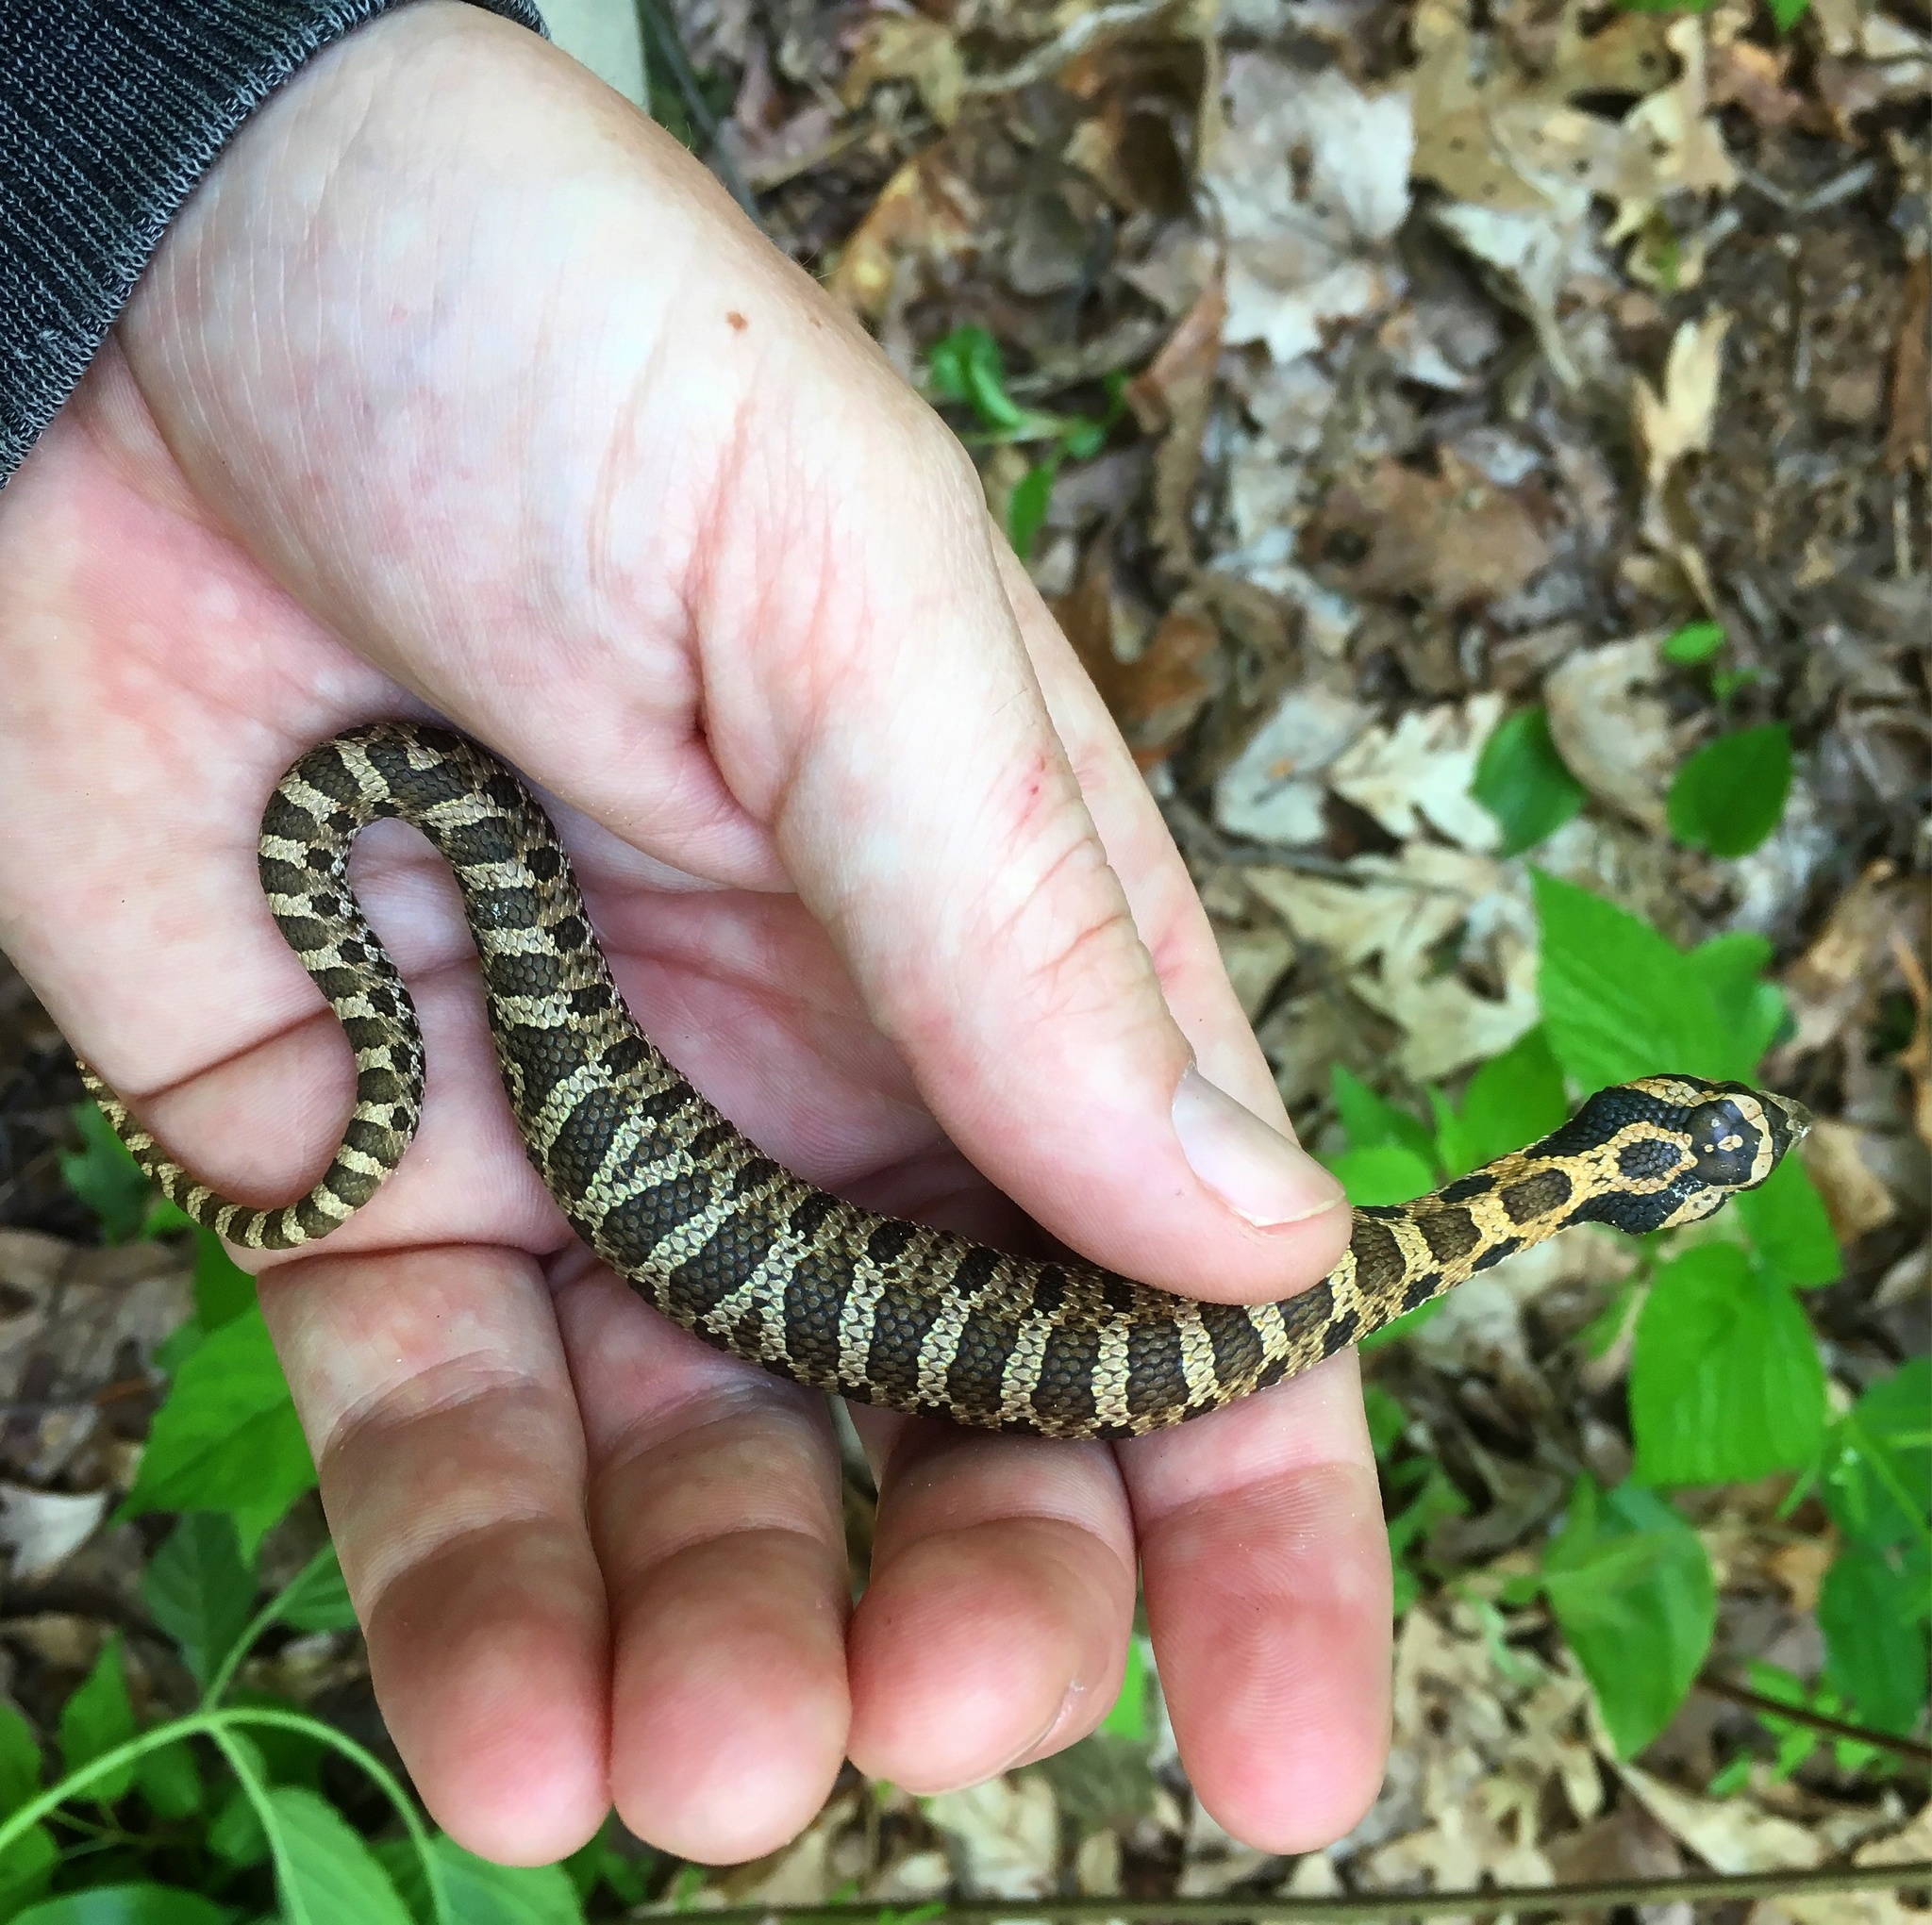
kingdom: Animalia
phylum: Chordata
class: Squamata
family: Colubridae
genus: Heterodon
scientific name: Heterodon platirhinos
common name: Eastern hognose snake
